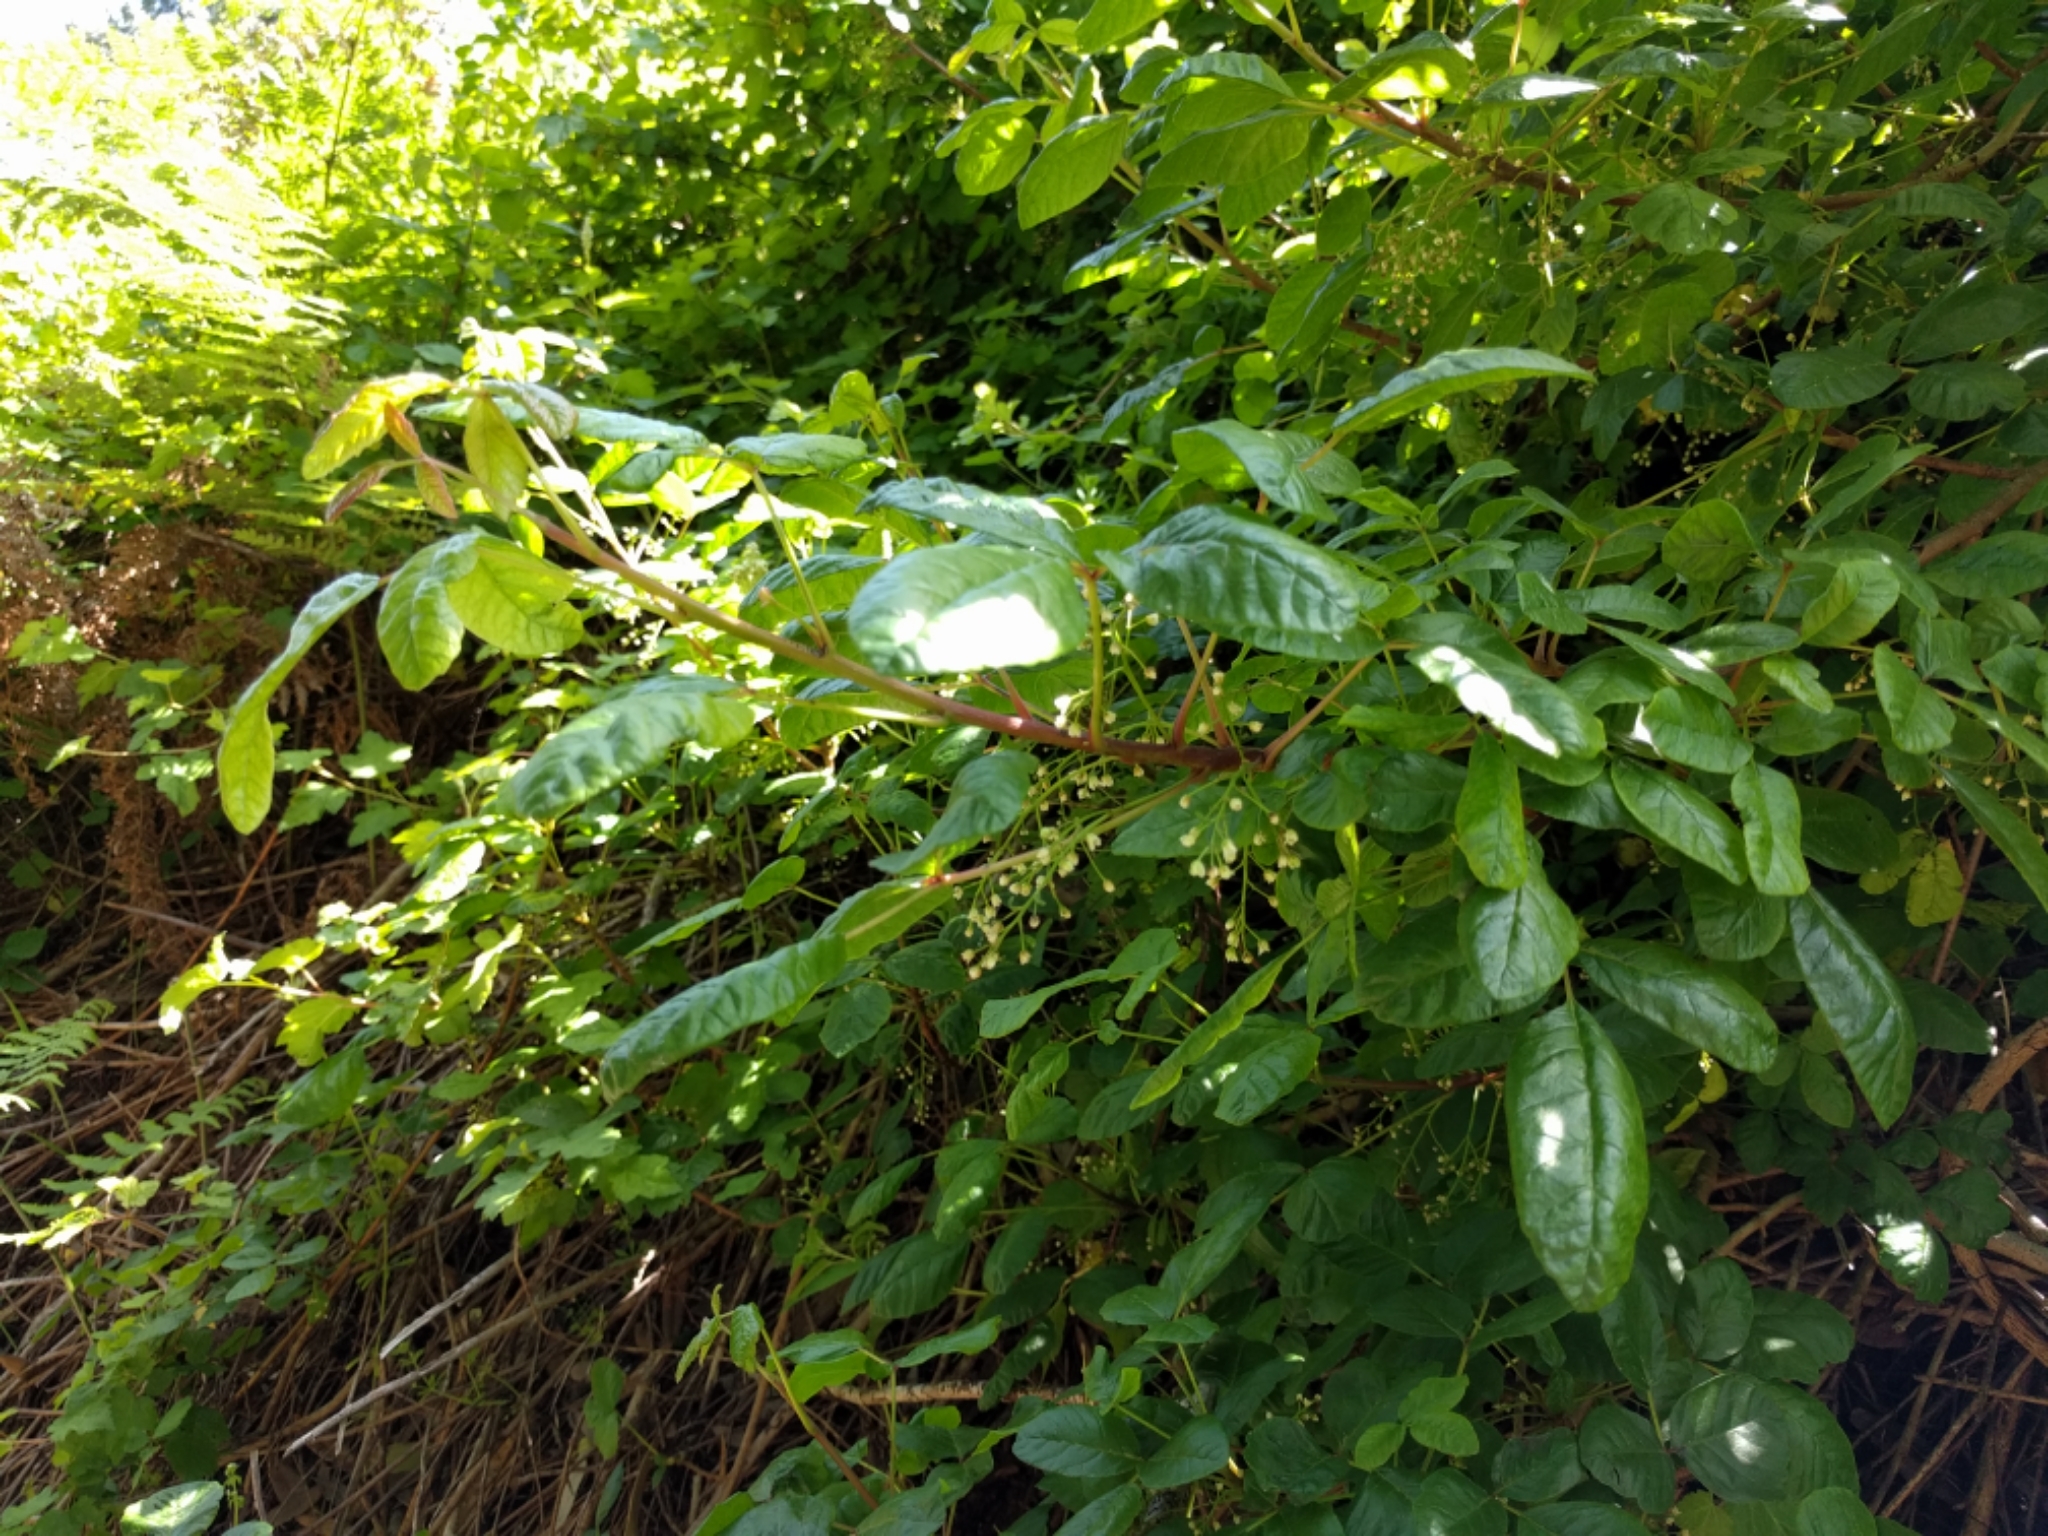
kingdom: Plantae
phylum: Tracheophyta
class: Magnoliopsida
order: Sapindales
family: Anacardiaceae
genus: Toxicodendron
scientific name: Toxicodendron diversilobum
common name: Pacific poison-oak
